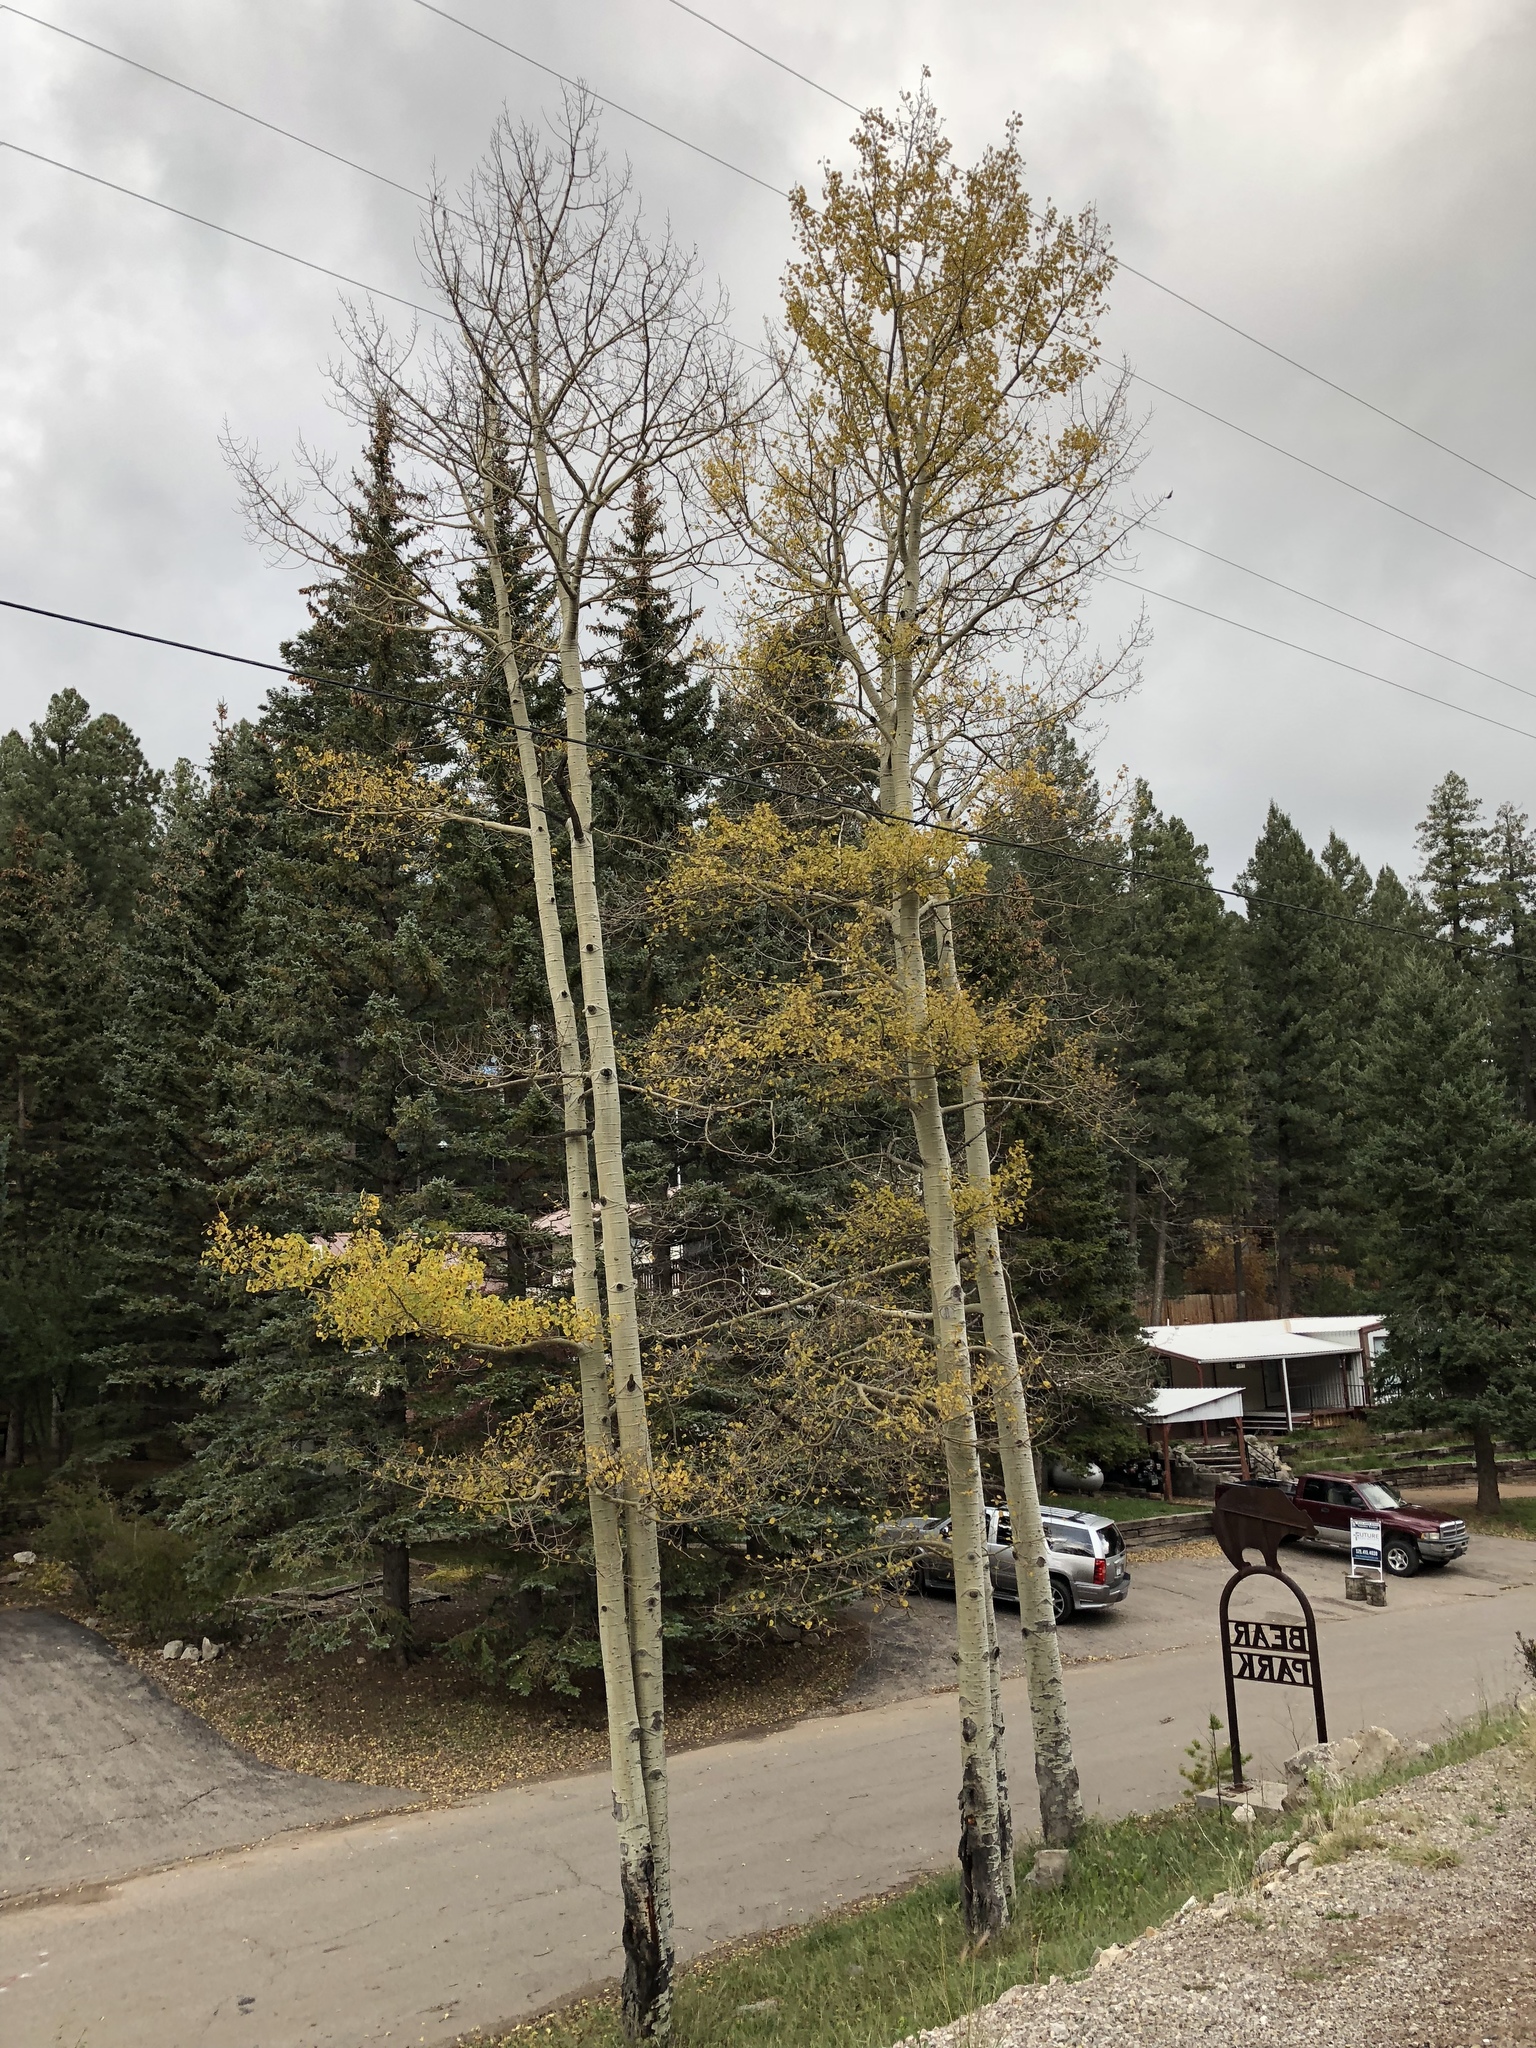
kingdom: Plantae
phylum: Tracheophyta
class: Magnoliopsida
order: Malpighiales
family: Salicaceae
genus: Populus
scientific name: Populus tremuloides
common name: Quaking aspen
